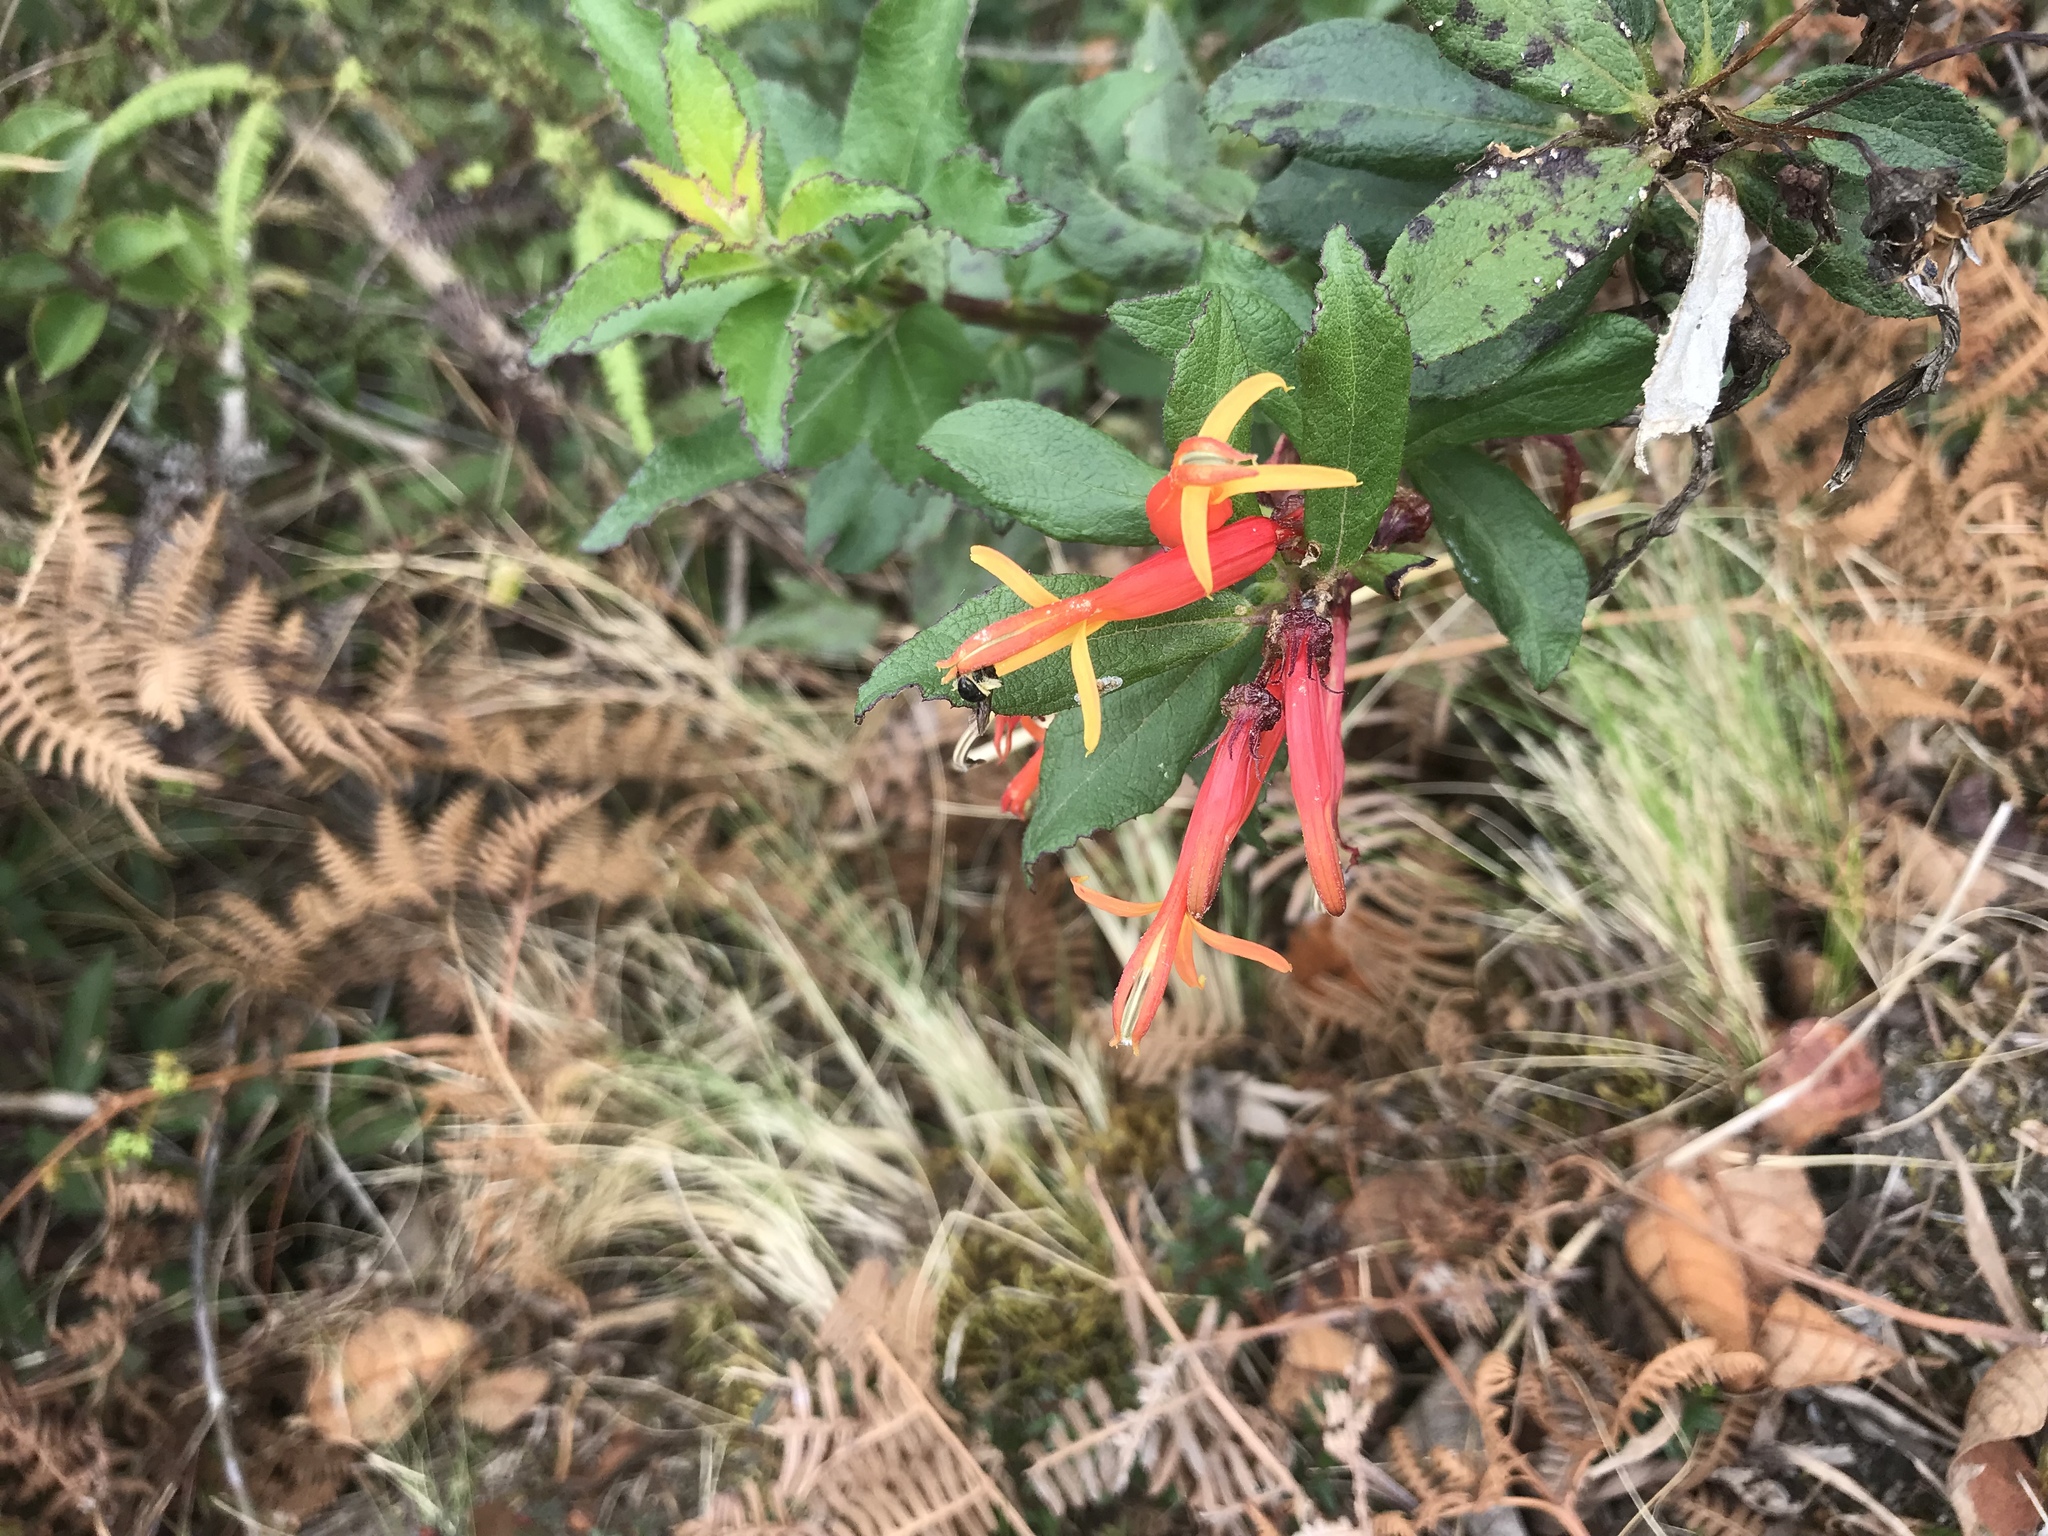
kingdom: Plantae
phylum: Tracheophyta
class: Magnoliopsida
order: Asterales
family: Campanulaceae
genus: Siphocampylus
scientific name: Siphocampylus krauseanus
